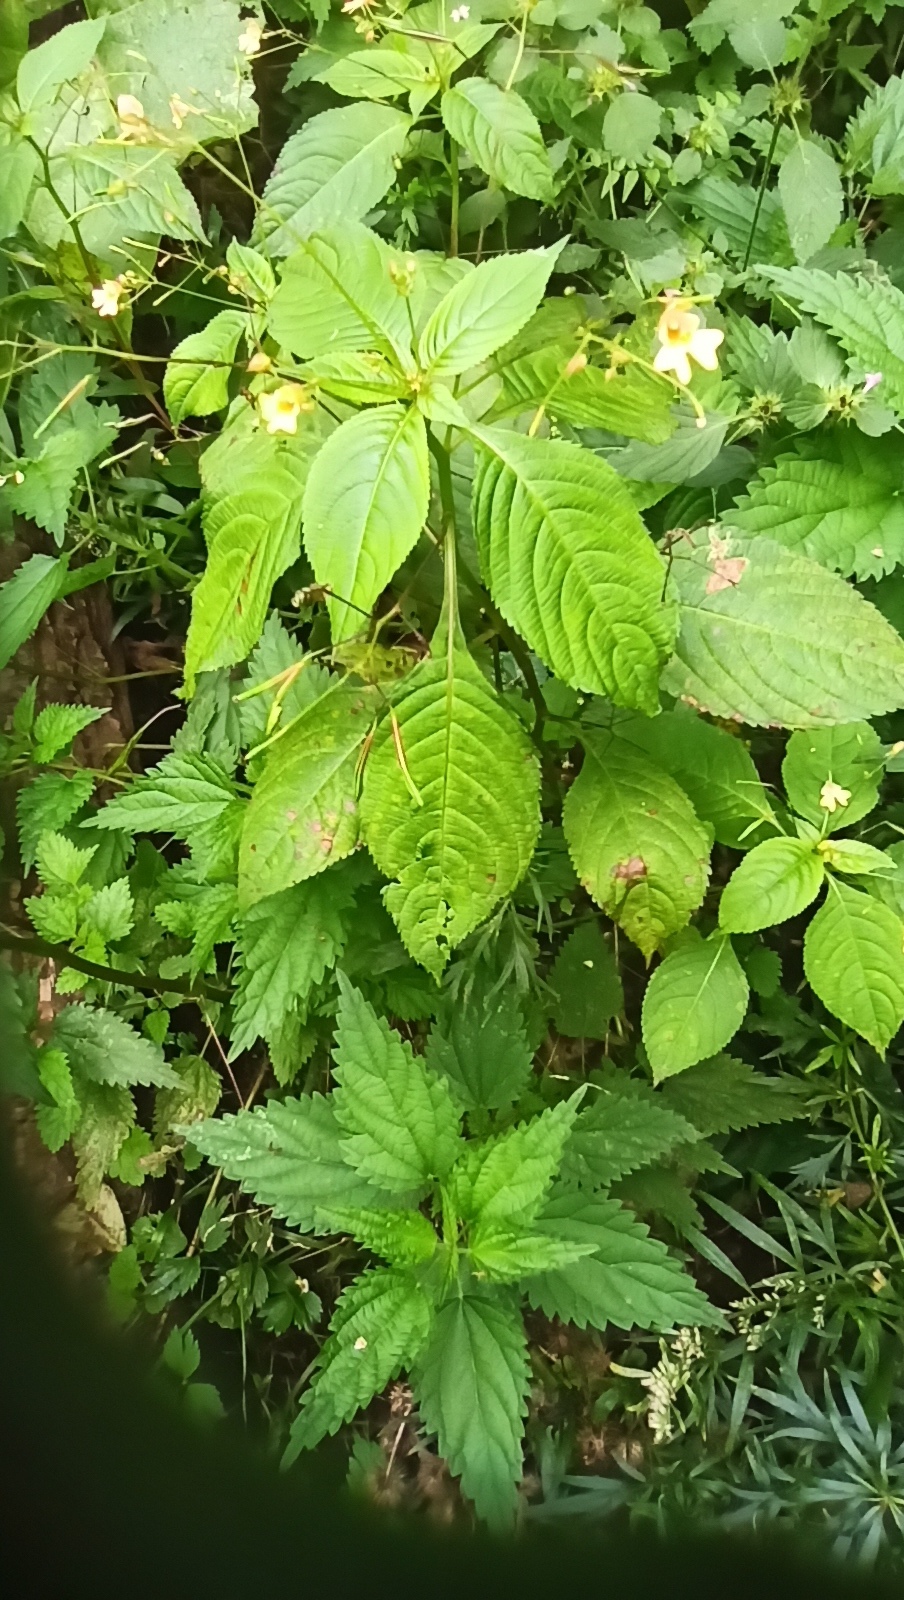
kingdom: Plantae
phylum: Tracheophyta
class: Magnoliopsida
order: Ericales
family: Balsaminaceae
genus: Impatiens
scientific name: Impatiens parviflora
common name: Small balsam
